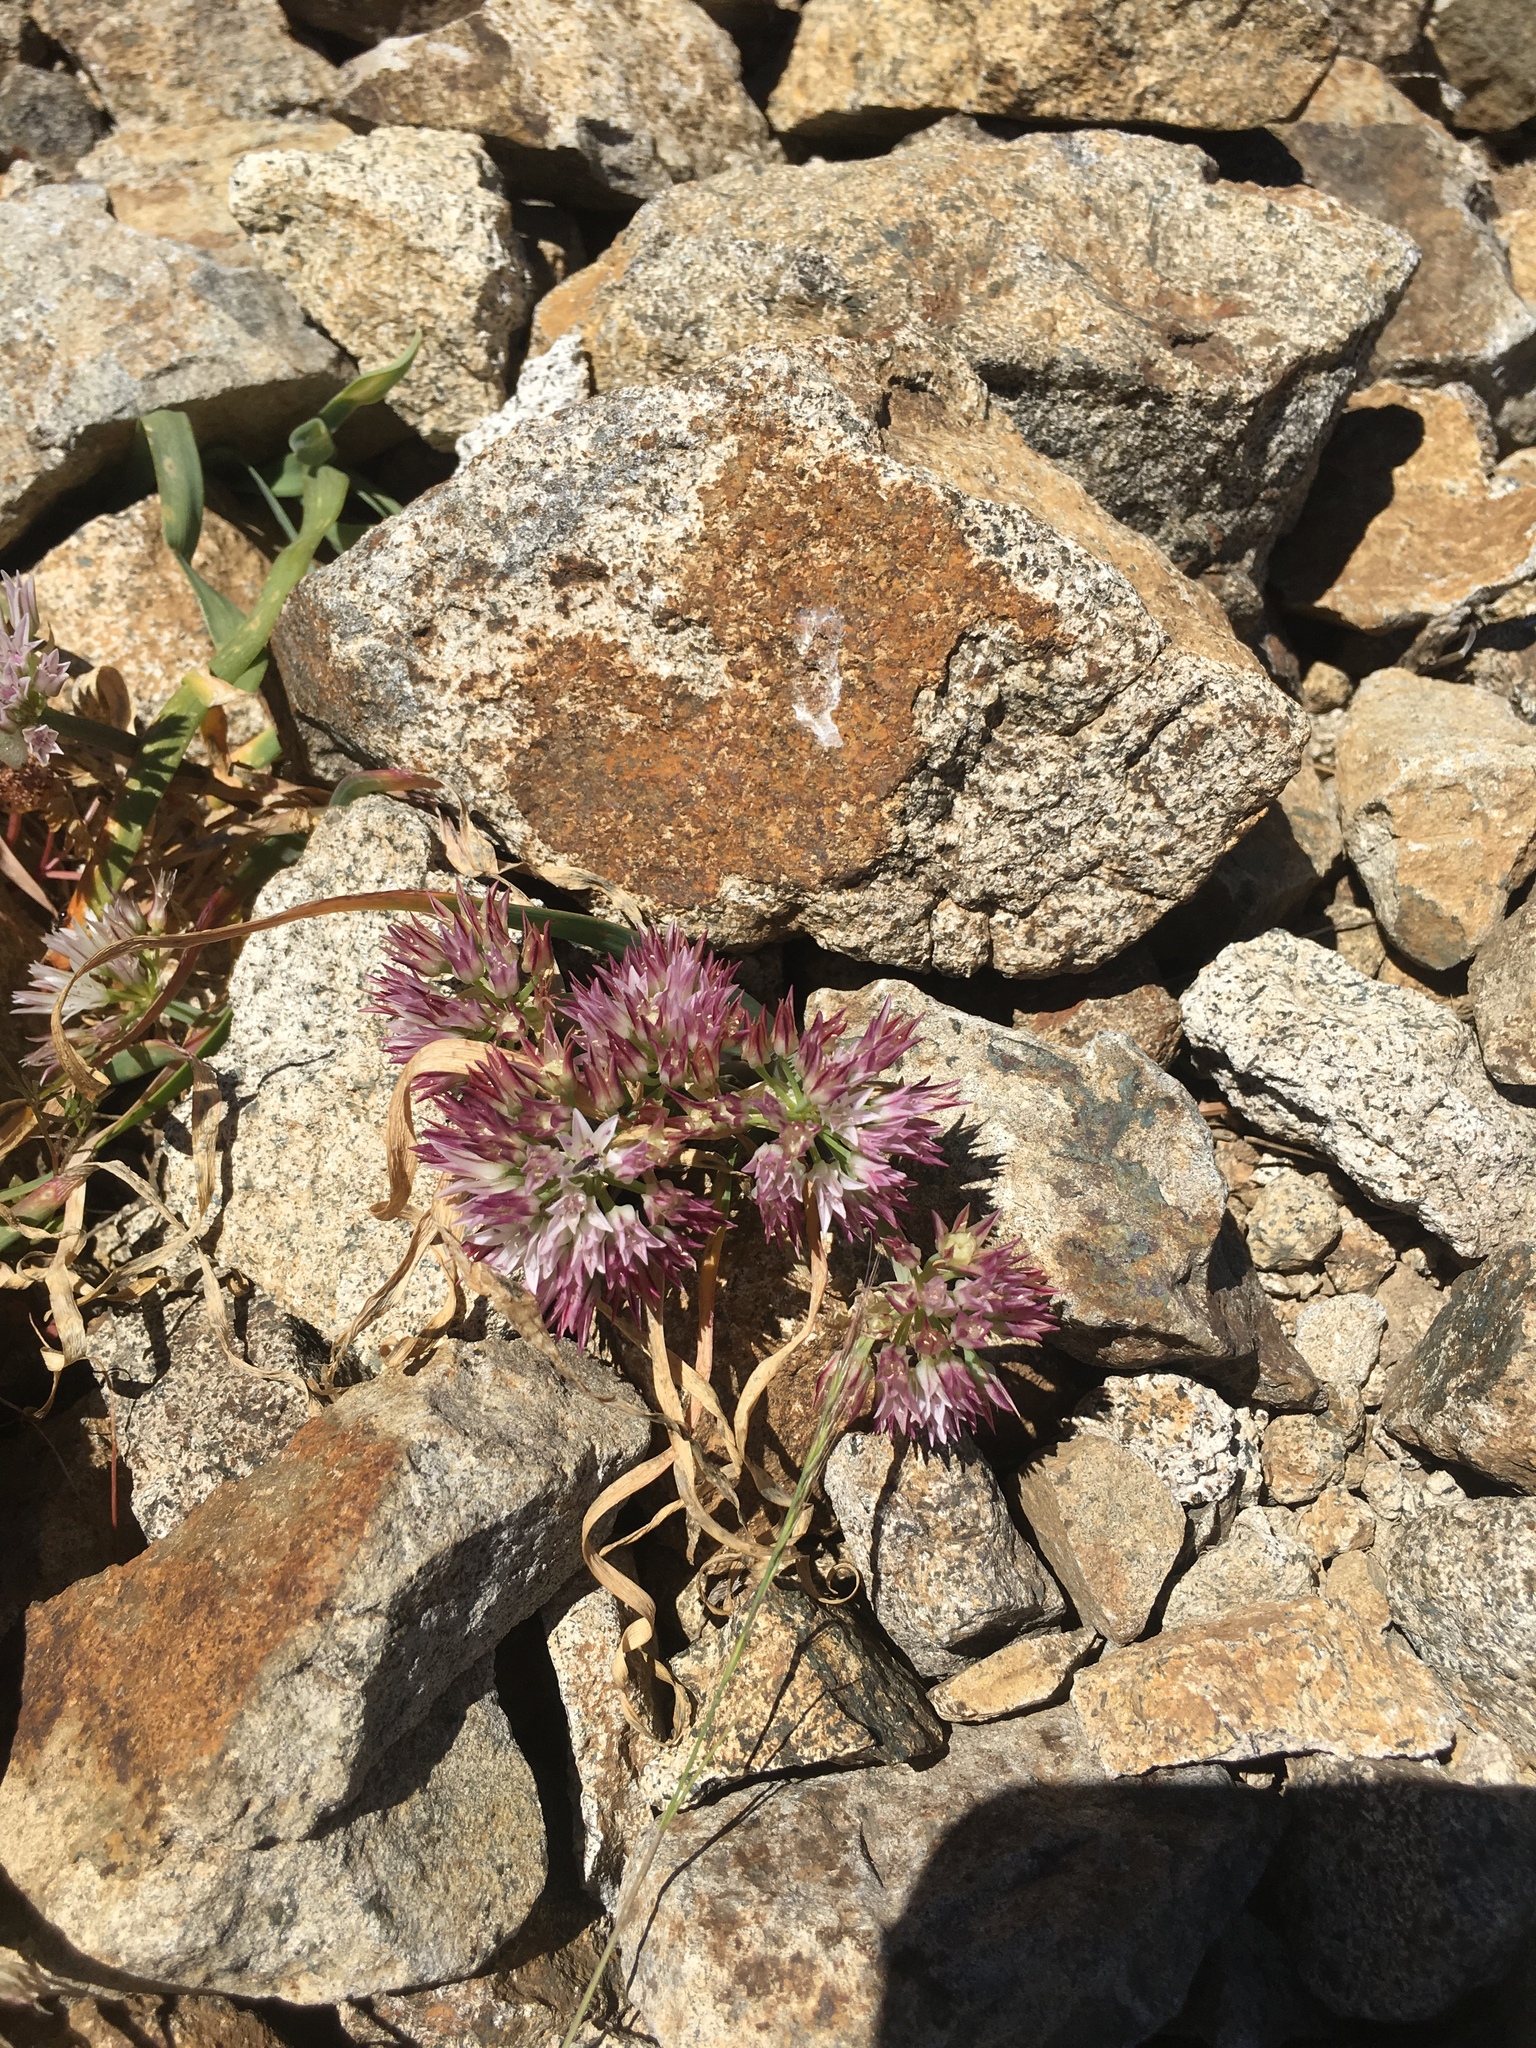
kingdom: Plantae
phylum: Tracheophyta
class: Liliopsida
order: Asparagales
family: Amaryllidaceae
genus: Allium
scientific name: Allium crenulatum
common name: Olympic onion
